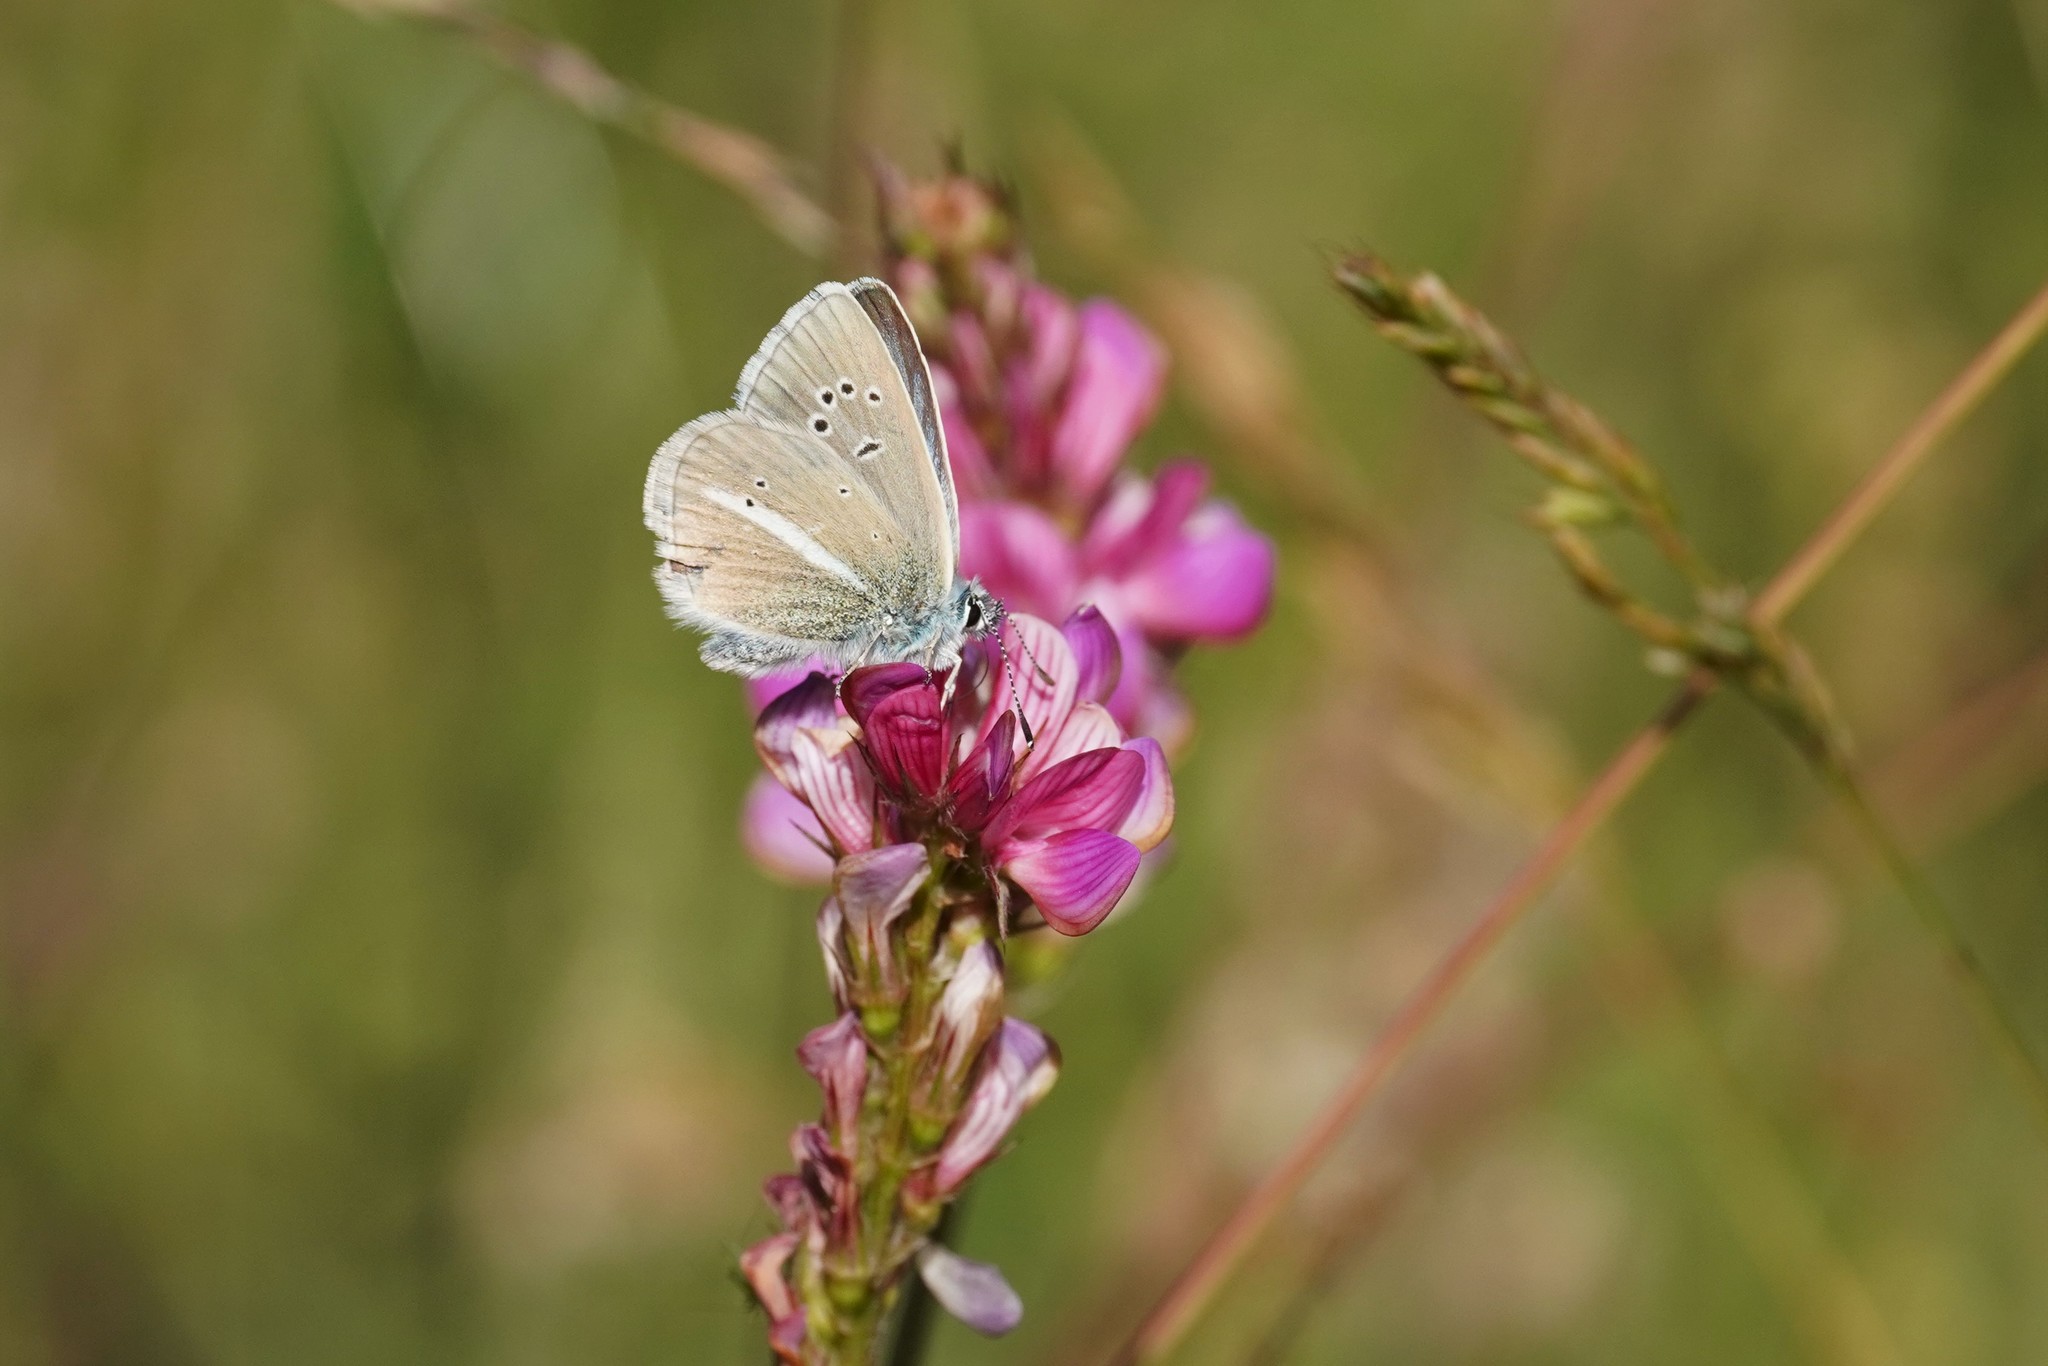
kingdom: Animalia
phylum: Arthropoda
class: Insecta
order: Lepidoptera
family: Lycaenidae
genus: Agrodiaetus
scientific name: Agrodiaetus damon
